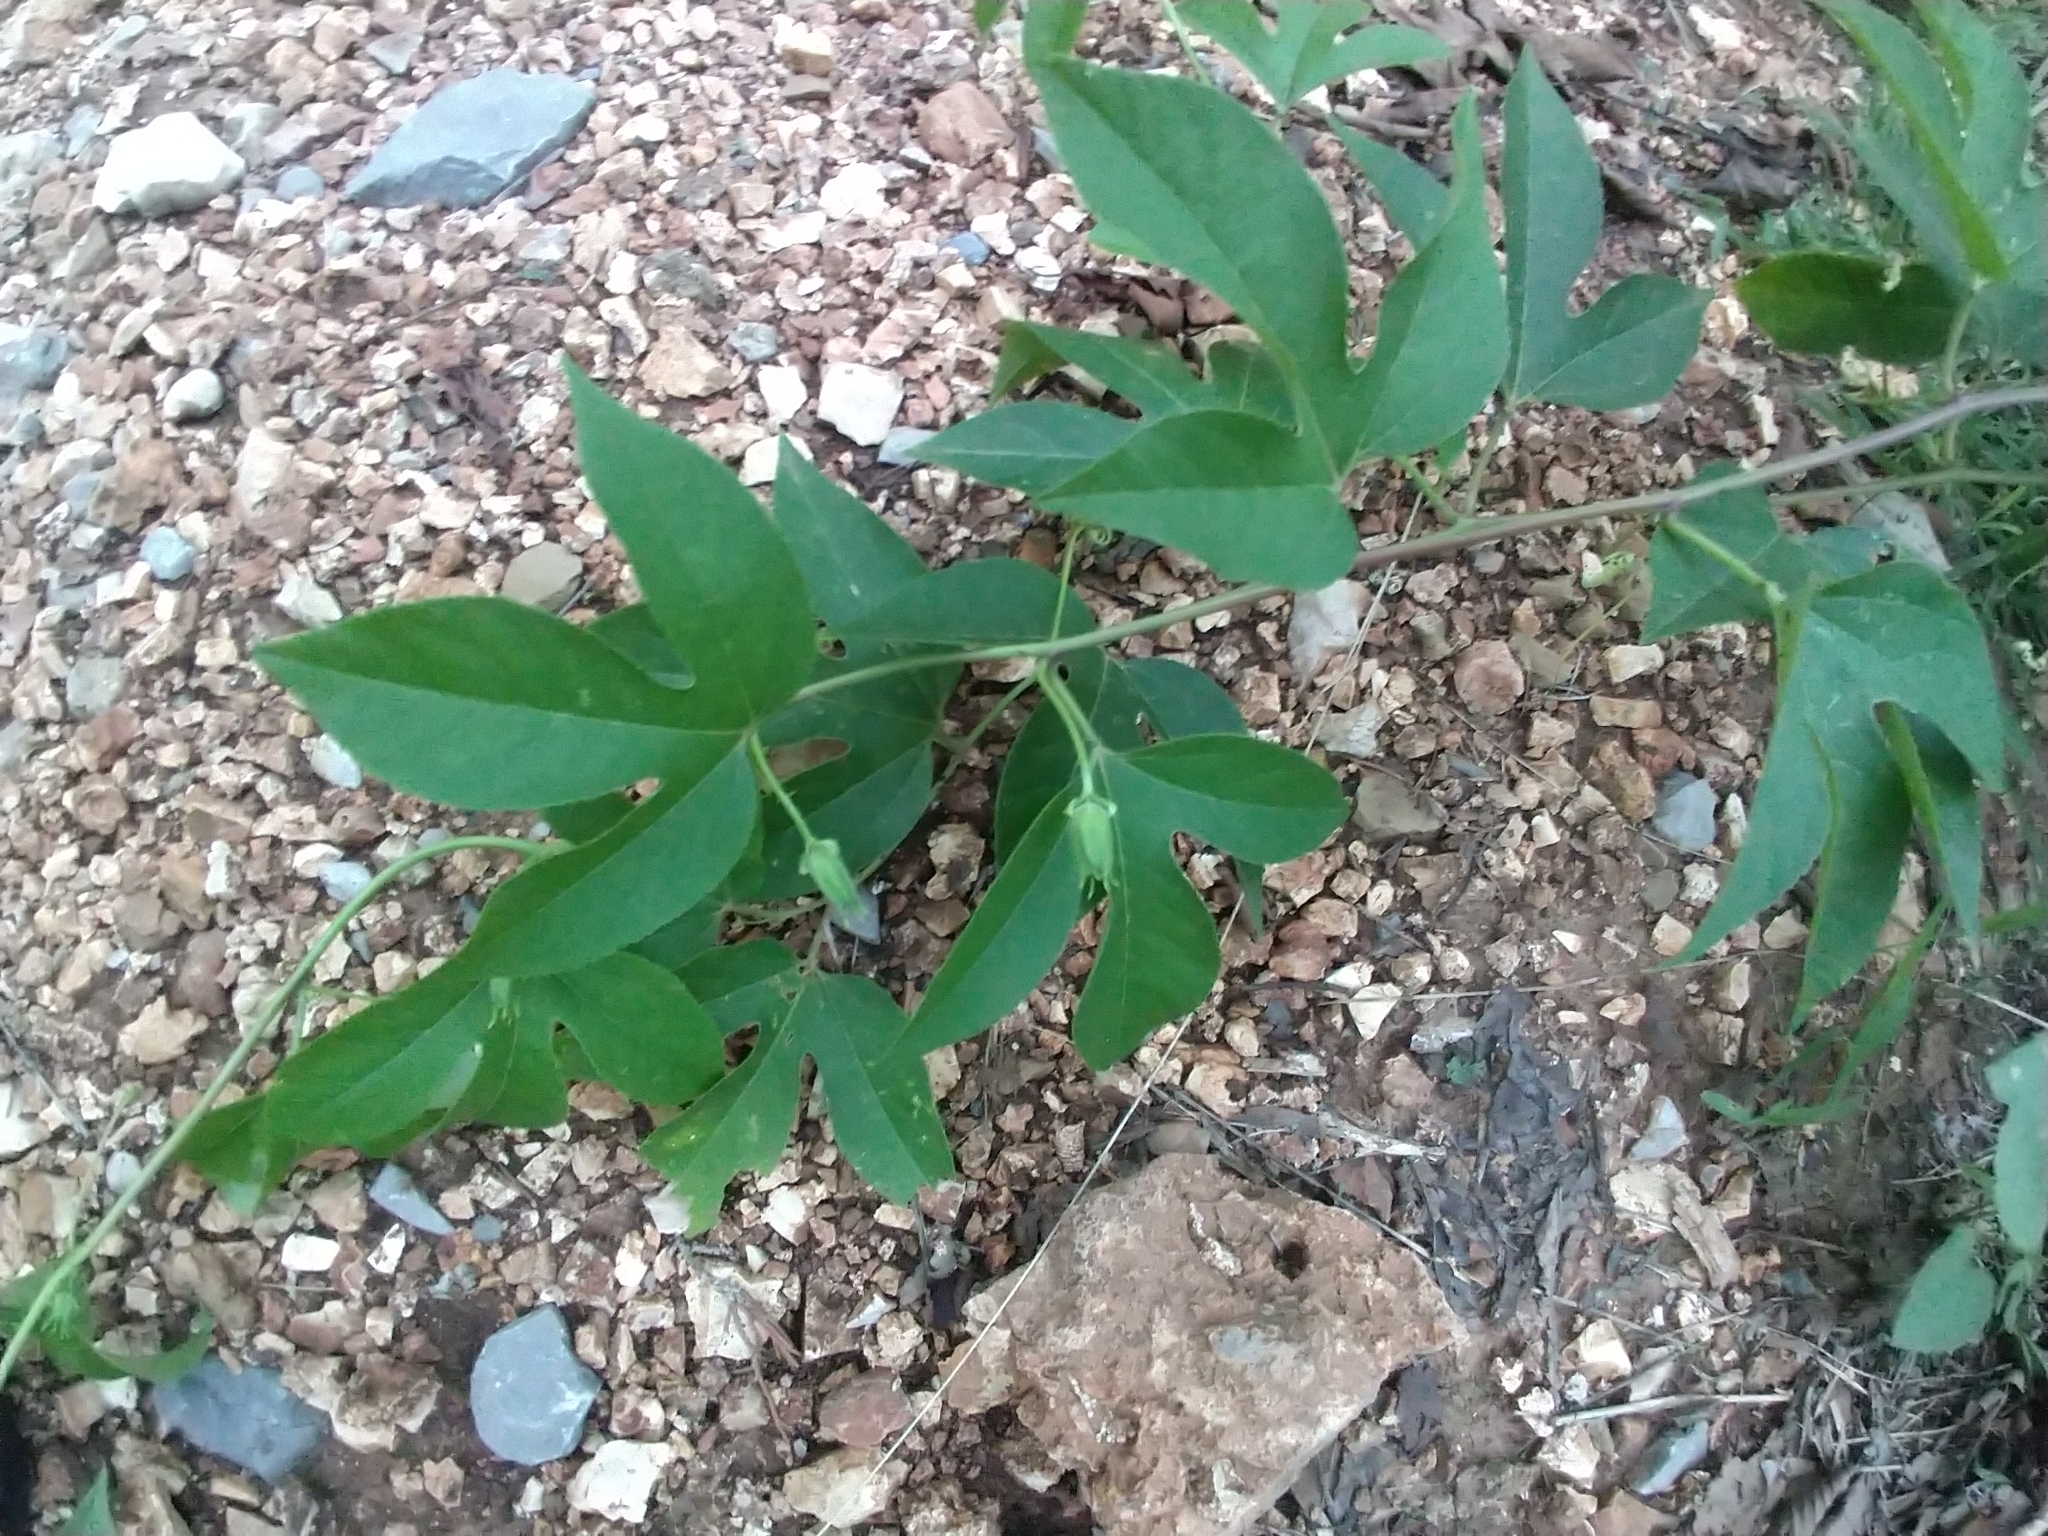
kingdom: Plantae
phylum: Tracheophyta
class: Magnoliopsida
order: Malpighiales
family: Passifloraceae
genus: Passiflora
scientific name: Passiflora incarnata
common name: Apricot-vine
